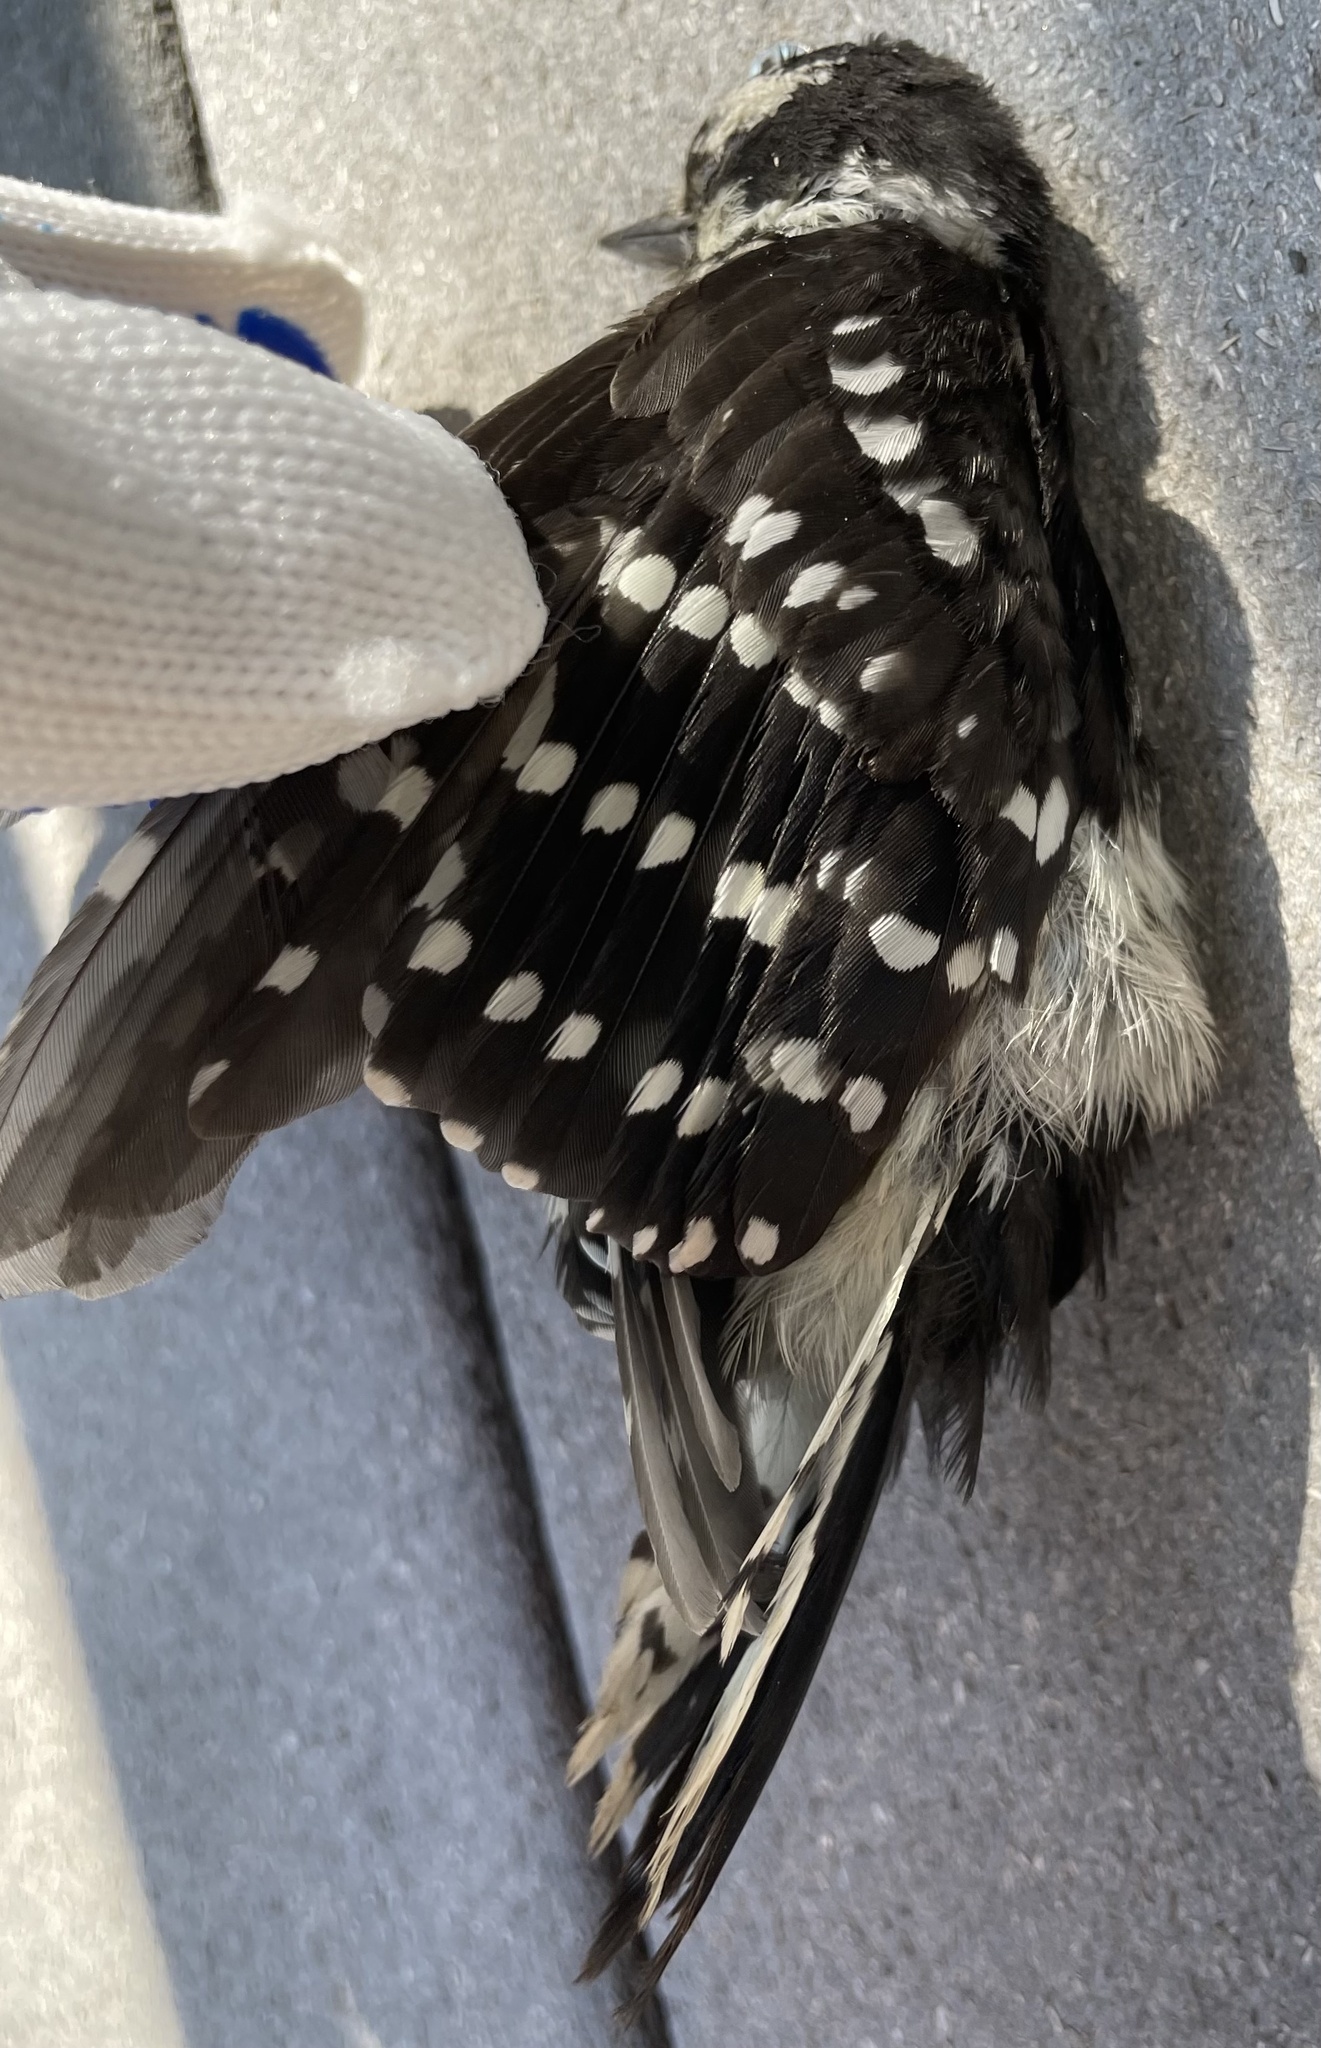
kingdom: Animalia
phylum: Chordata
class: Aves
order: Piciformes
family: Picidae
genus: Dryobates
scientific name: Dryobates pubescens
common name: Downy woodpecker
